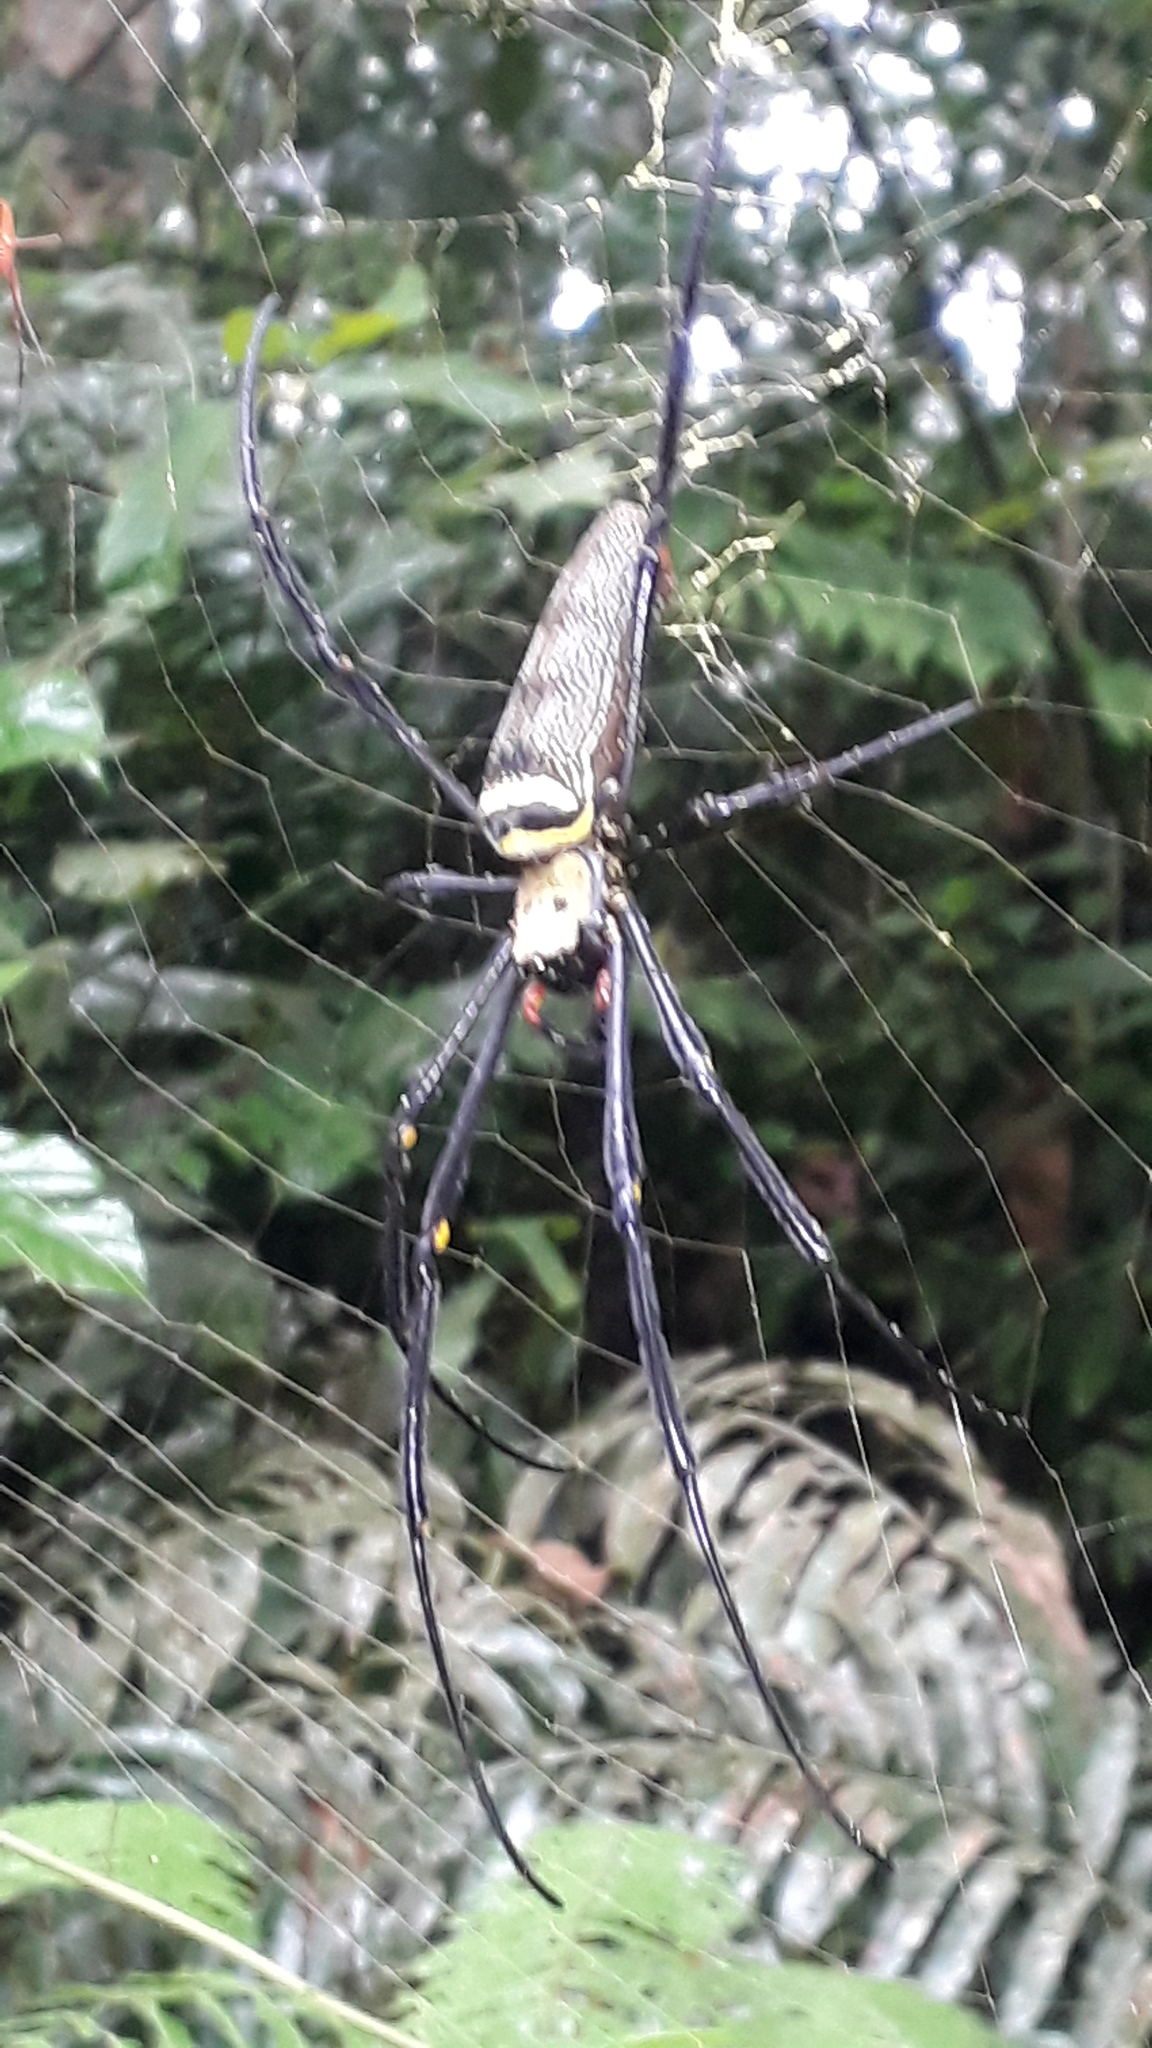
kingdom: Animalia
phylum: Arthropoda
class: Arachnida
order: Araneae
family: Araneidae
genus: Nephila
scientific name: Nephila pilipes
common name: Giant golden orb weaver
